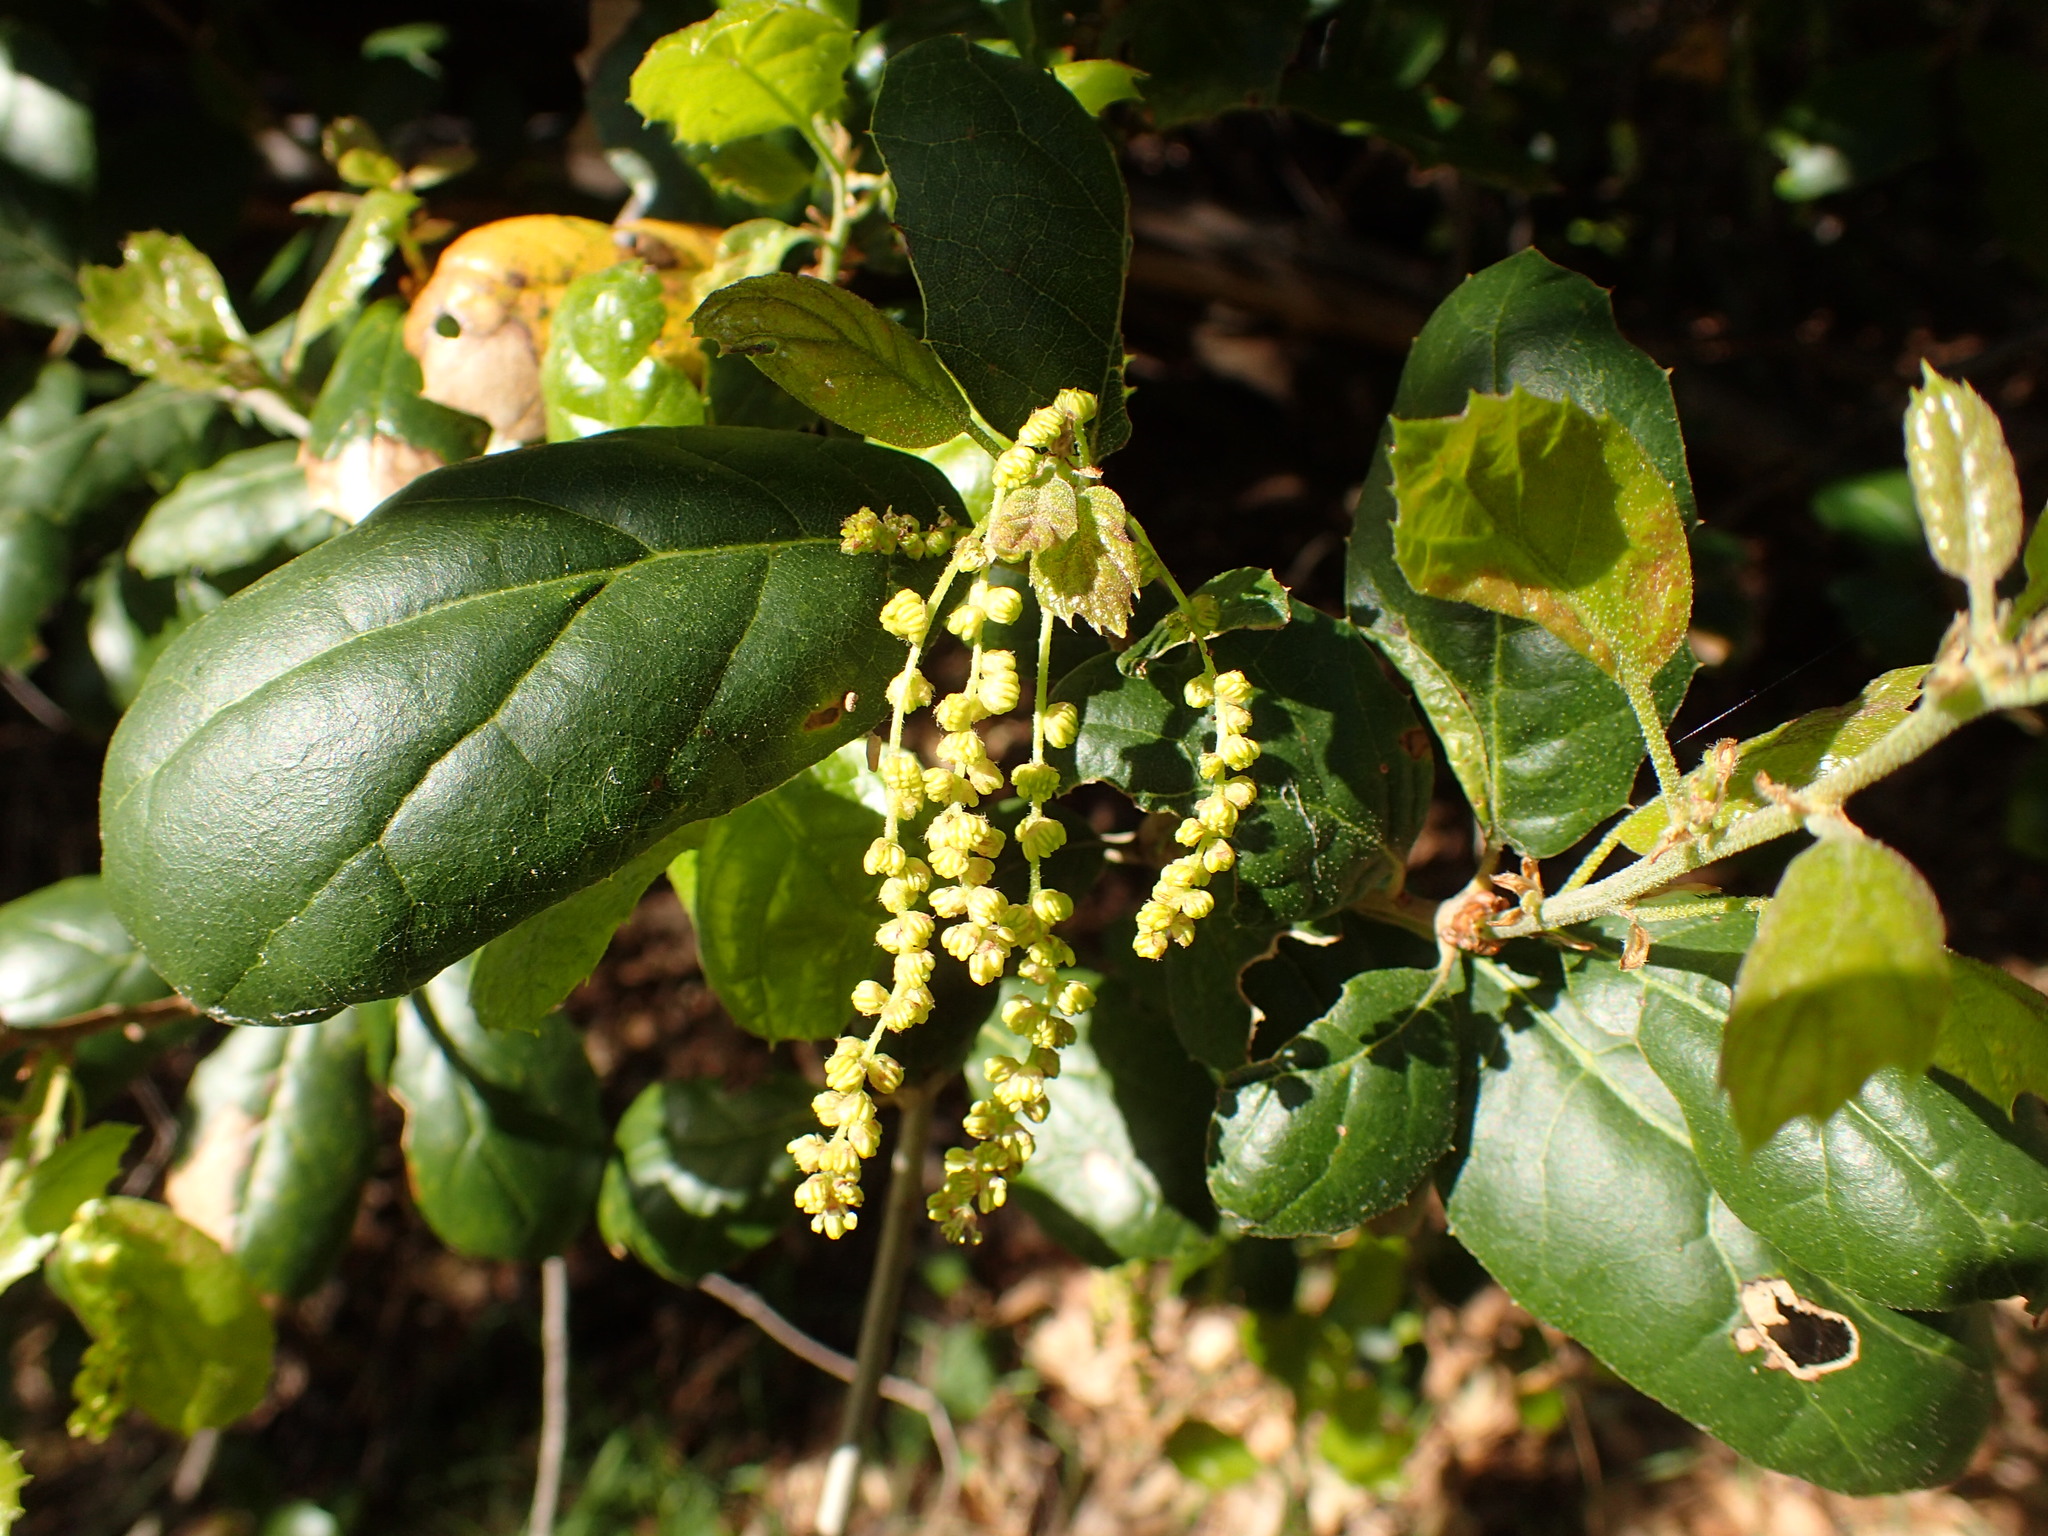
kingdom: Plantae
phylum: Tracheophyta
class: Magnoliopsida
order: Fagales
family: Fagaceae
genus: Quercus
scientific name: Quercus agrifolia
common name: California live oak
